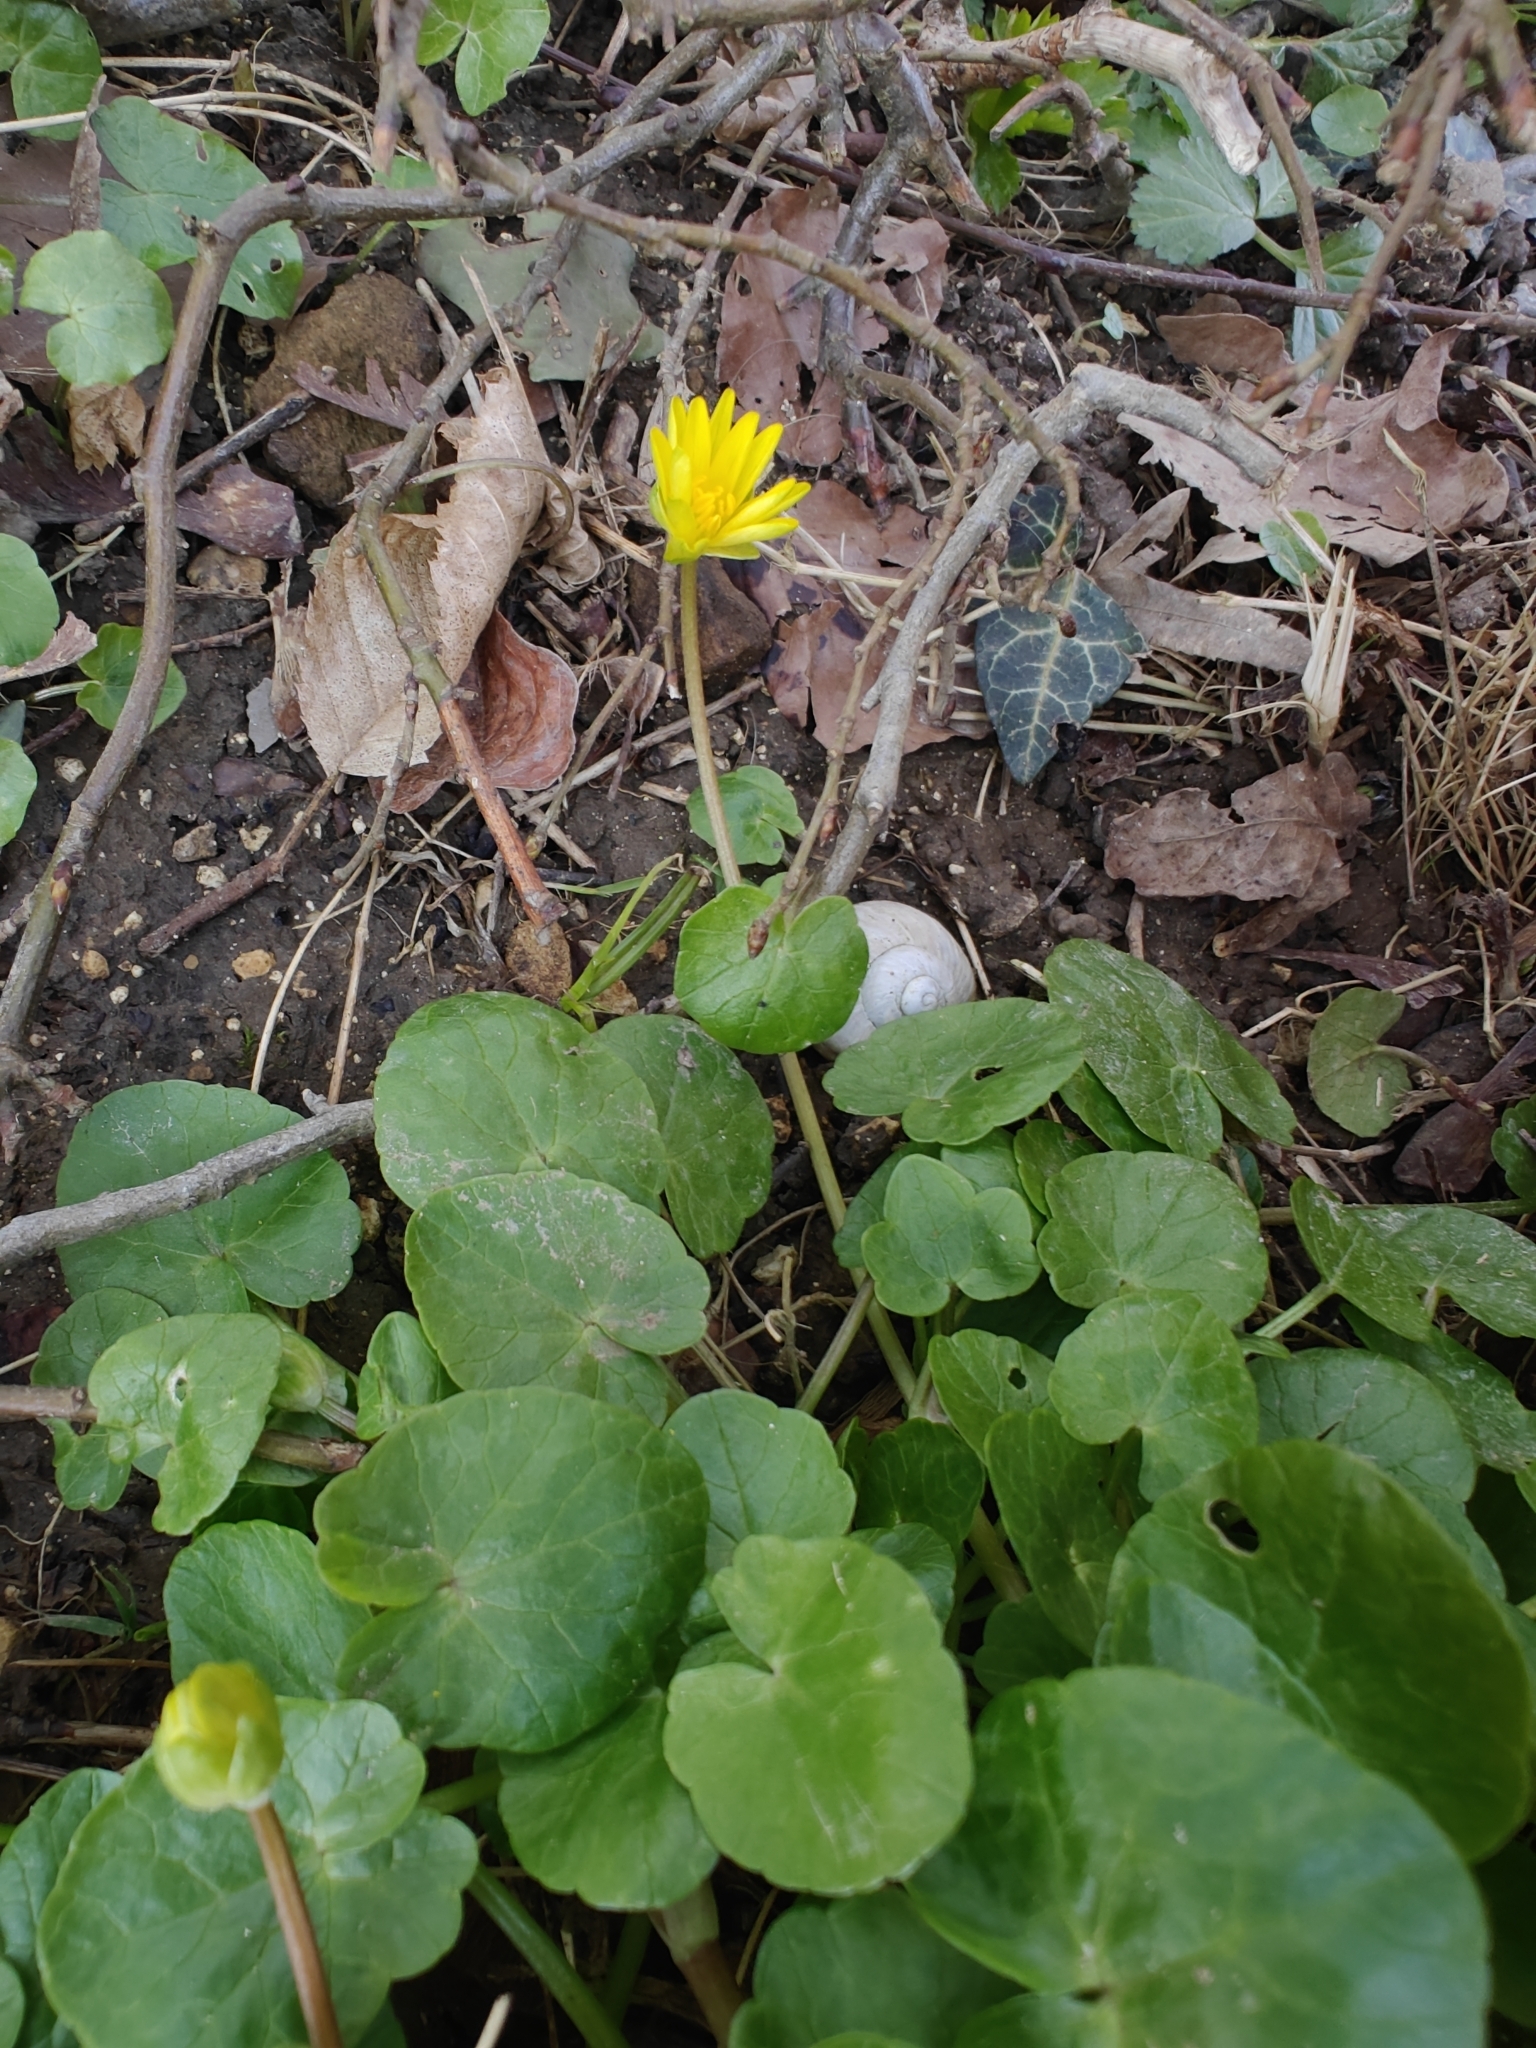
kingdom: Plantae
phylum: Tracheophyta
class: Magnoliopsida
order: Ranunculales
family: Ranunculaceae
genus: Ficaria
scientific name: Ficaria verna
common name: Lesser celandine
